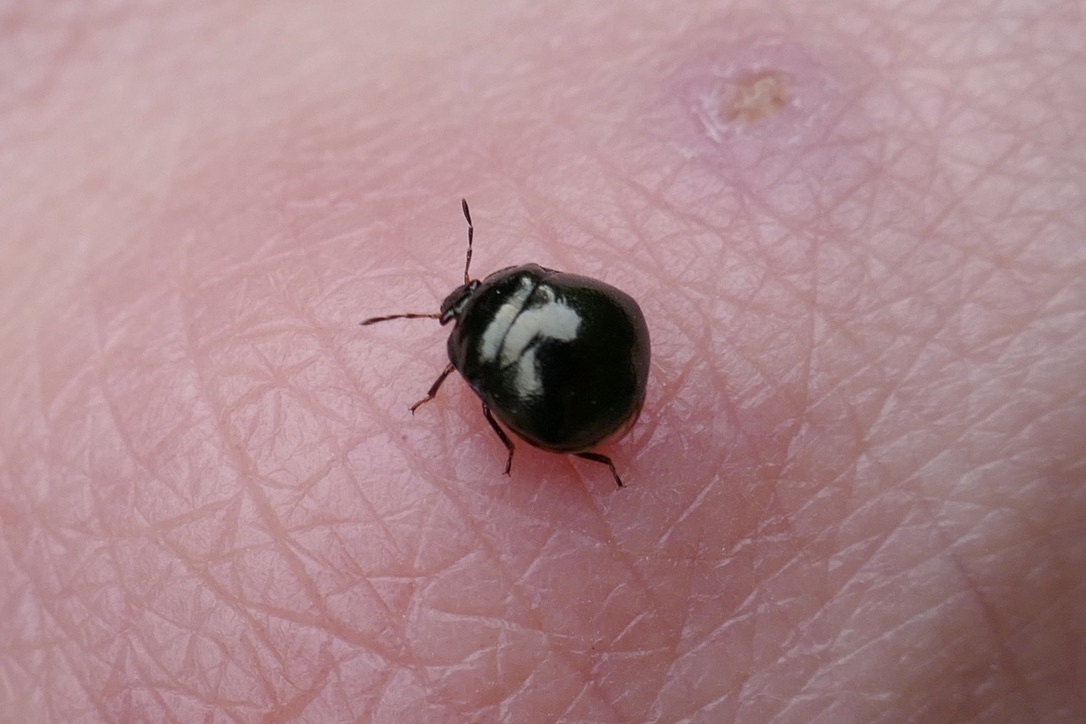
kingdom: Animalia
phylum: Arthropoda
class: Insecta
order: Hemiptera
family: Plataspidae
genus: Coptosoma
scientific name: Coptosoma scutellatum
